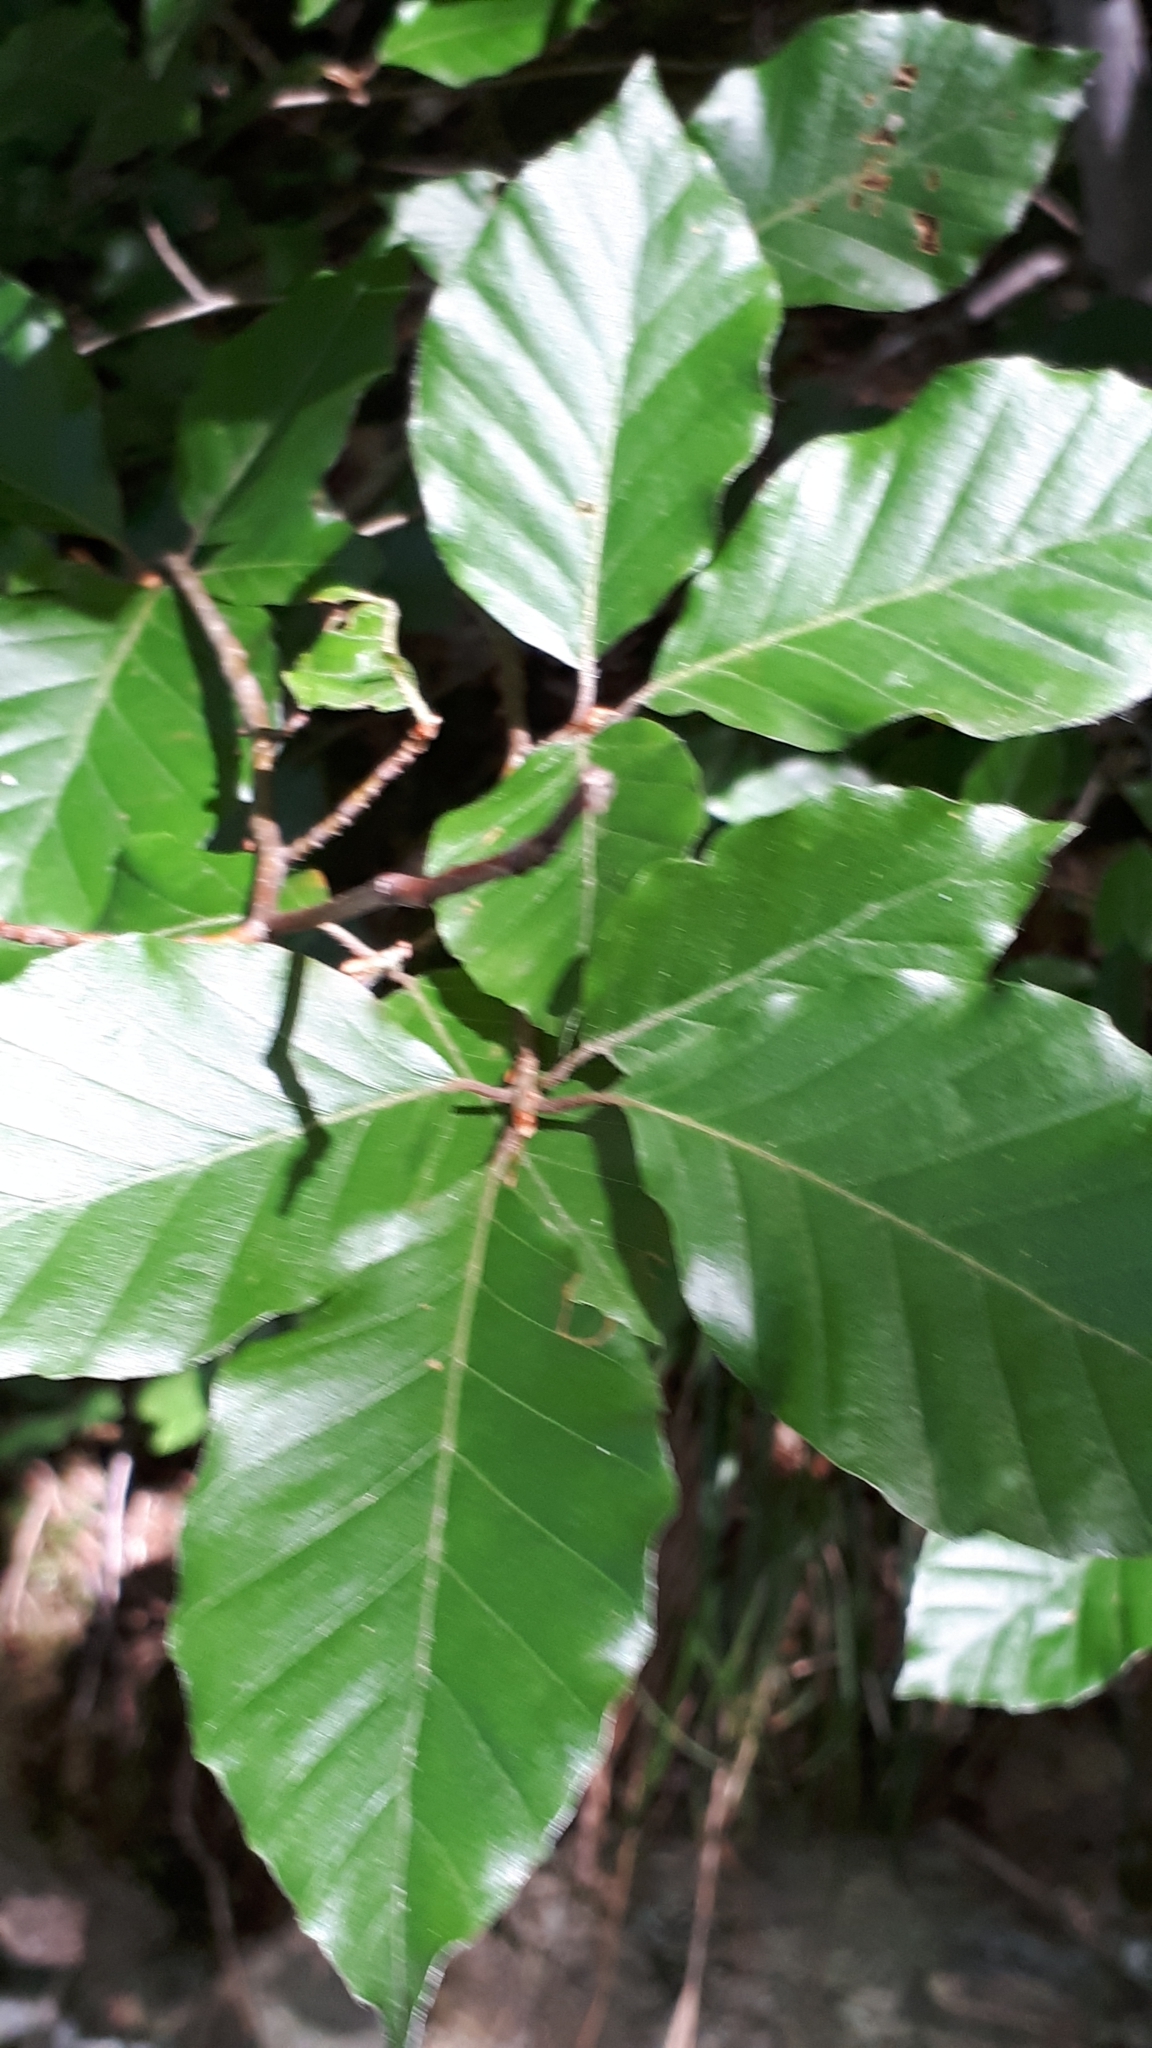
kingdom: Plantae
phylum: Tracheophyta
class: Magnoliopsida
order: Fagales
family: Fagaceae
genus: Fagus
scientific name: Fagus sylvatica
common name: Beech
